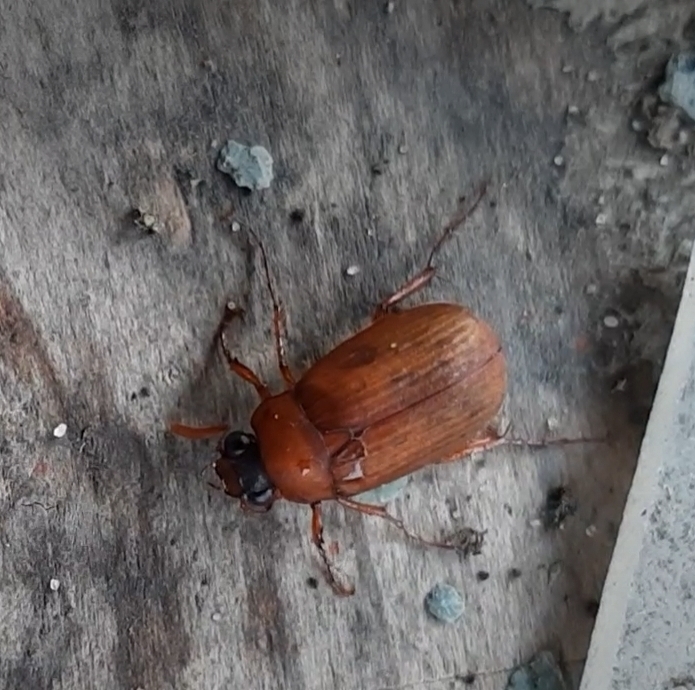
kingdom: Animalia
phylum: Arthropoda
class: Insecta
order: Coleoptera
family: Scarabaeidae
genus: Serica
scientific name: Serica brunnea
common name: Brown chafer
